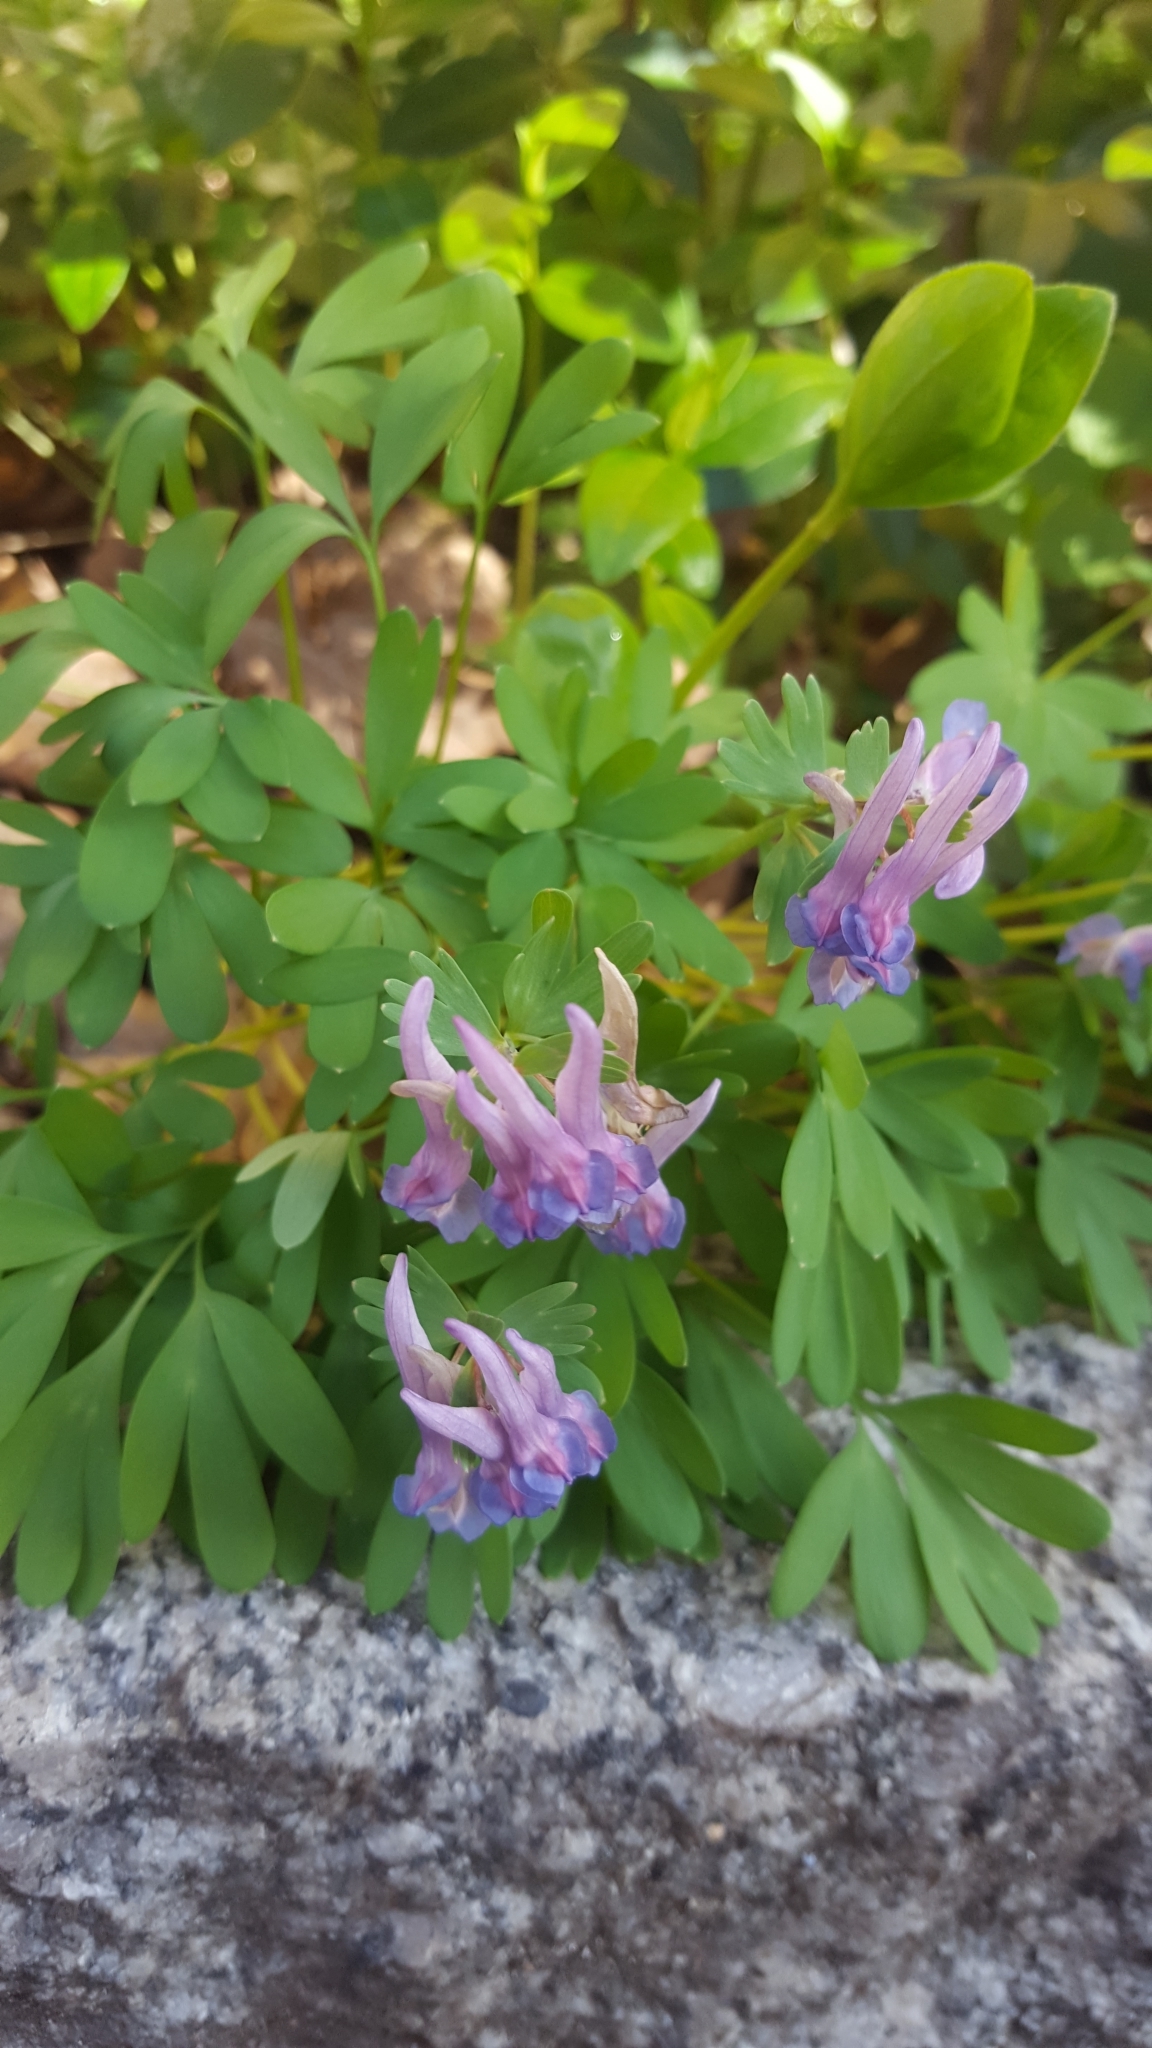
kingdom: Plantae
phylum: Tracheophyta
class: Magnoliopsida
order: Ranunculales
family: Papaveraceae
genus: Corydalis
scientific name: Corydalis solida
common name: Bird-in-a-bush
